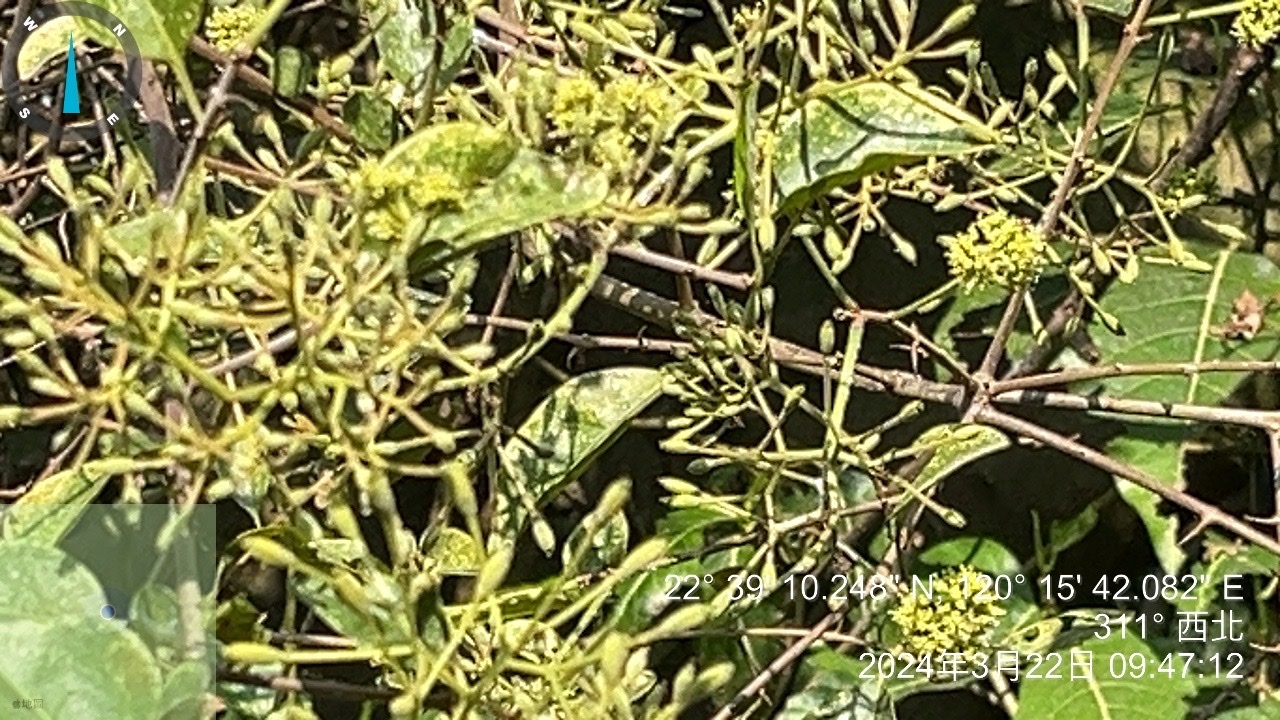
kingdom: Plantae
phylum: Tracheophyta
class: Magnoliopsida
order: Caryophyllales
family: Nyctaginaceae
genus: Pisonia
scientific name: Pisonia aculeata
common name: Cockspur vine
